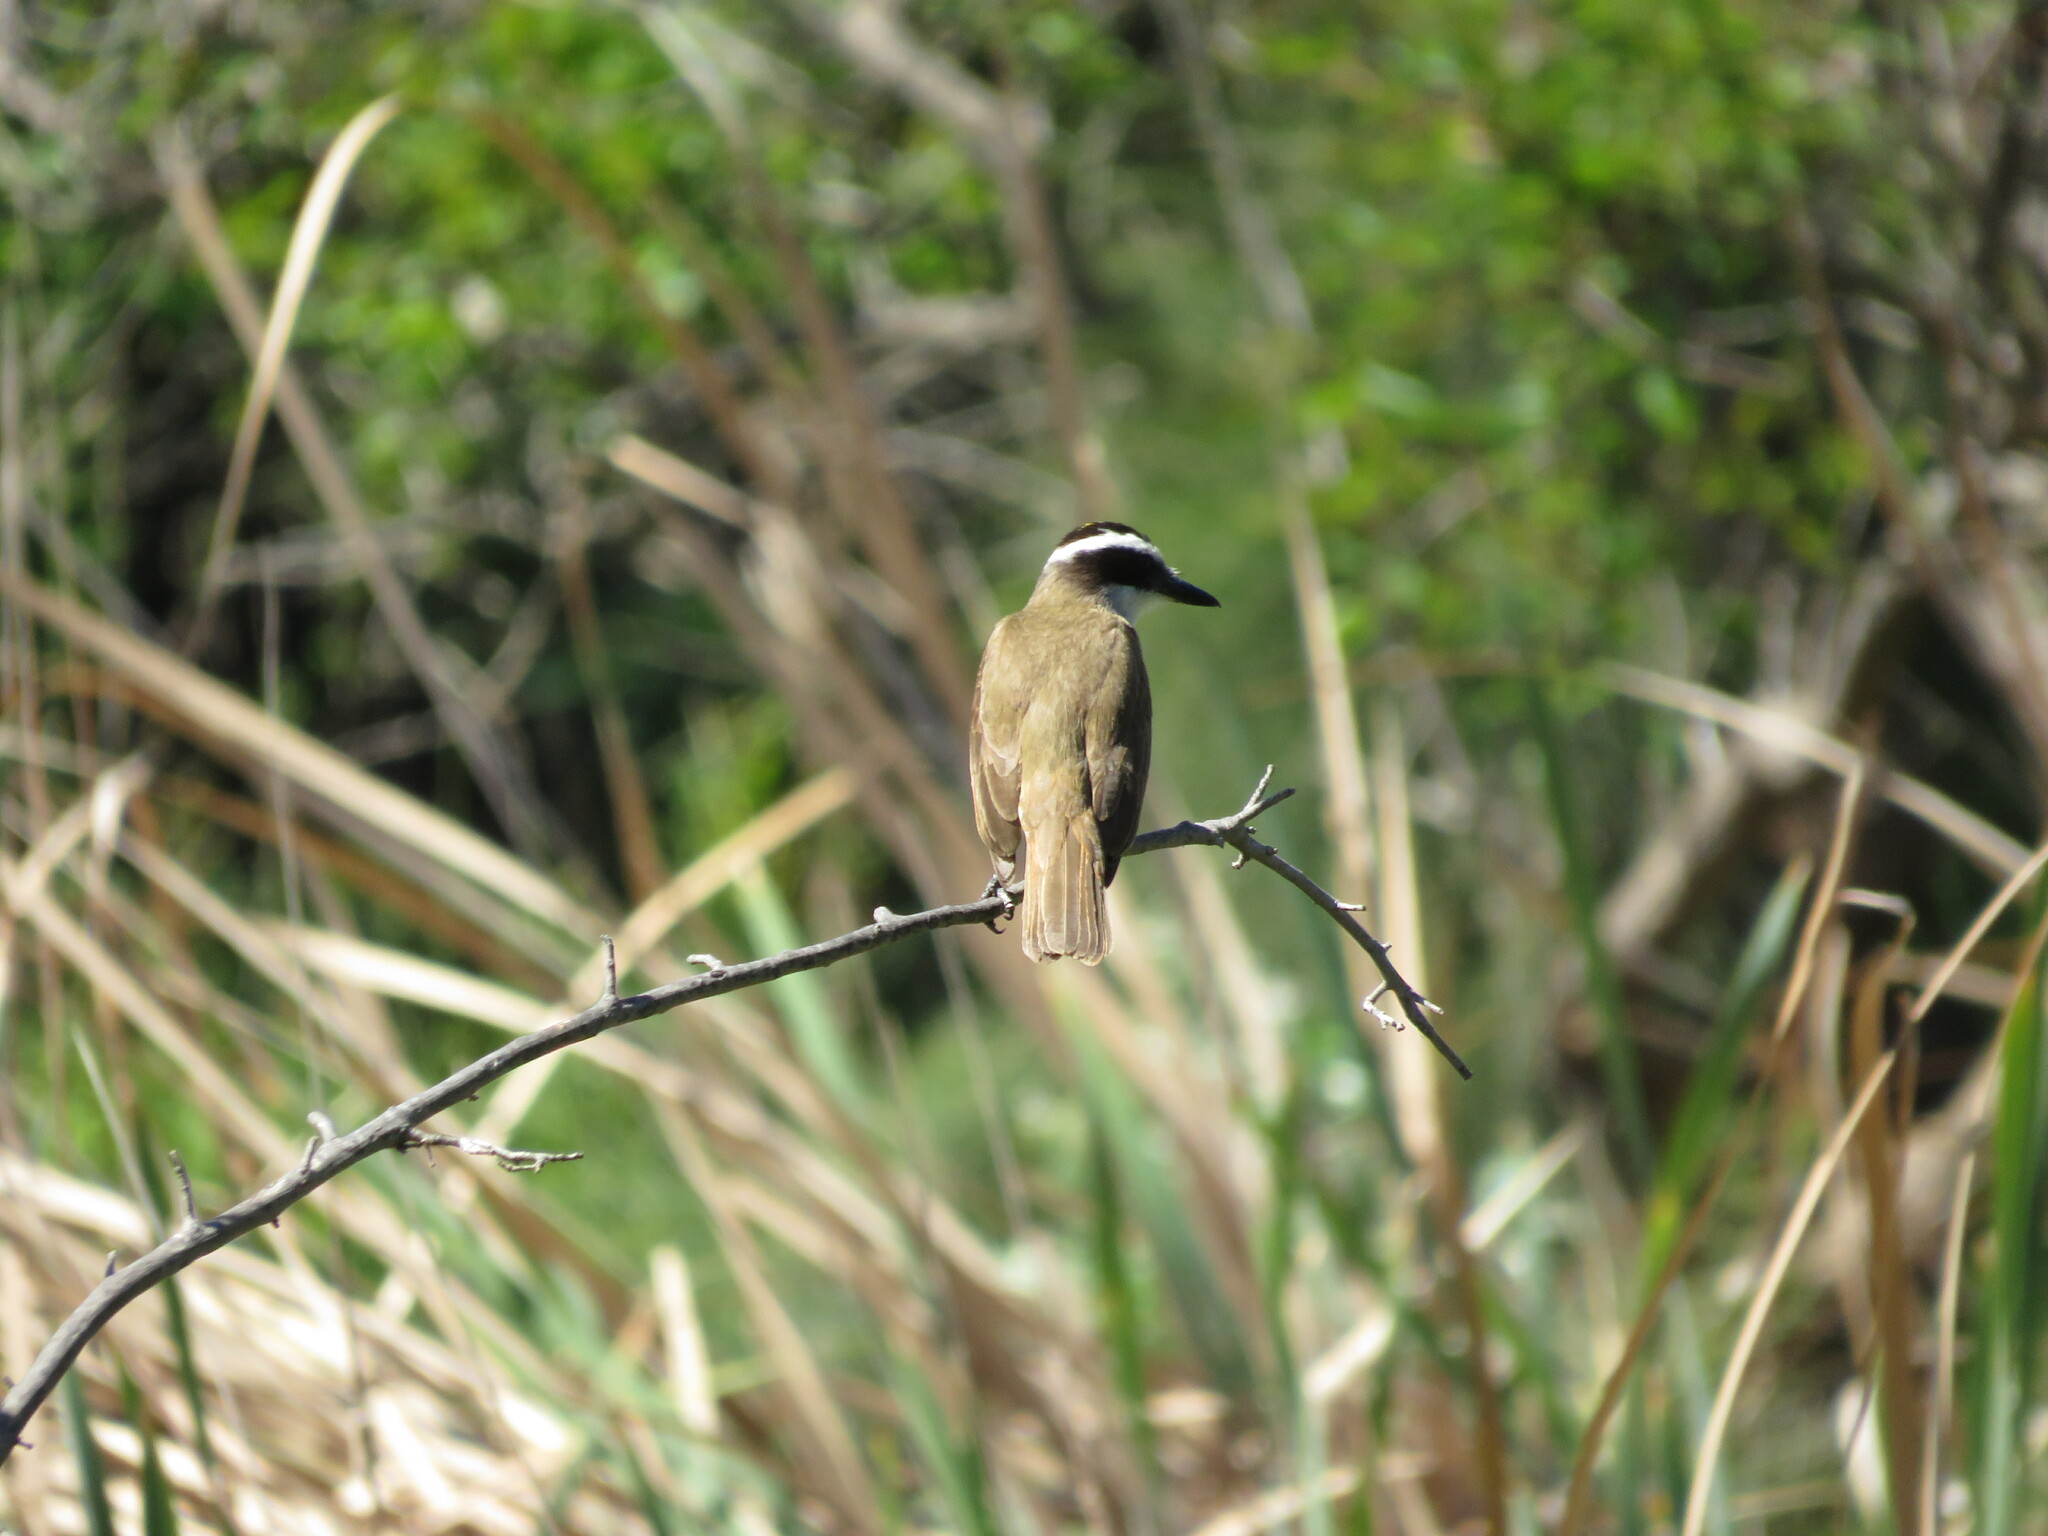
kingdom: Animalia
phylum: Chordata
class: Aves
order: Passeriformes
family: Tyrannidae
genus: Pitangus
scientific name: Pitangus sulphuratus
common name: Great kiskadee
